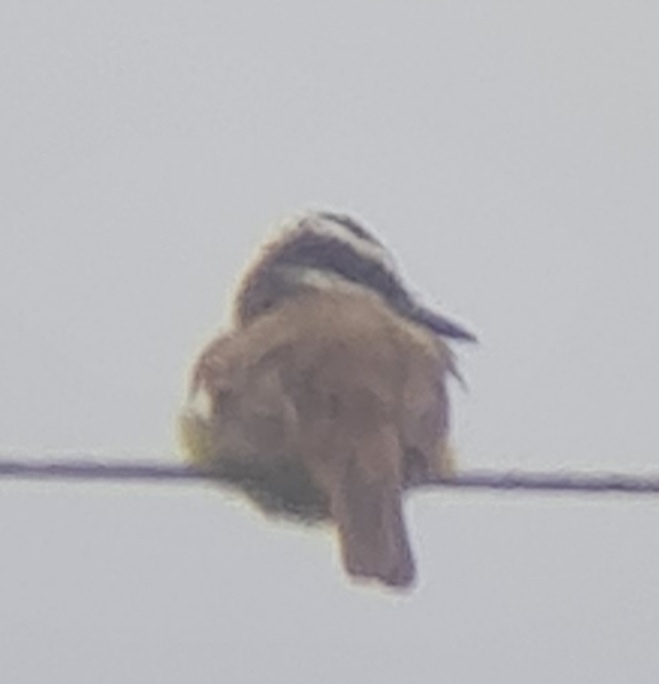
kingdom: Animalia
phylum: Chordata
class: Aves
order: Passeriformes
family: Tyrannidae
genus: Pitangus
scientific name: Pitangus sulphuratus
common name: Great kiskadee
